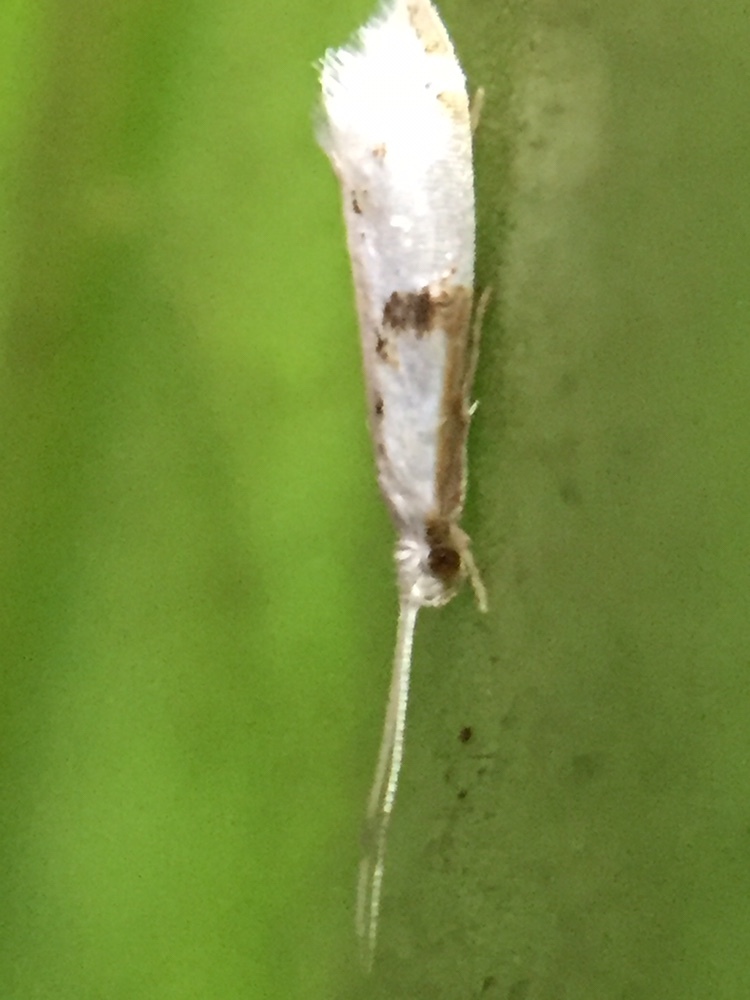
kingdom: Animalia
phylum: Arthropoda
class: Insecta
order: Lepidoptera
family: Tineidae
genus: Sagephora
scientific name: Sagephora felix
